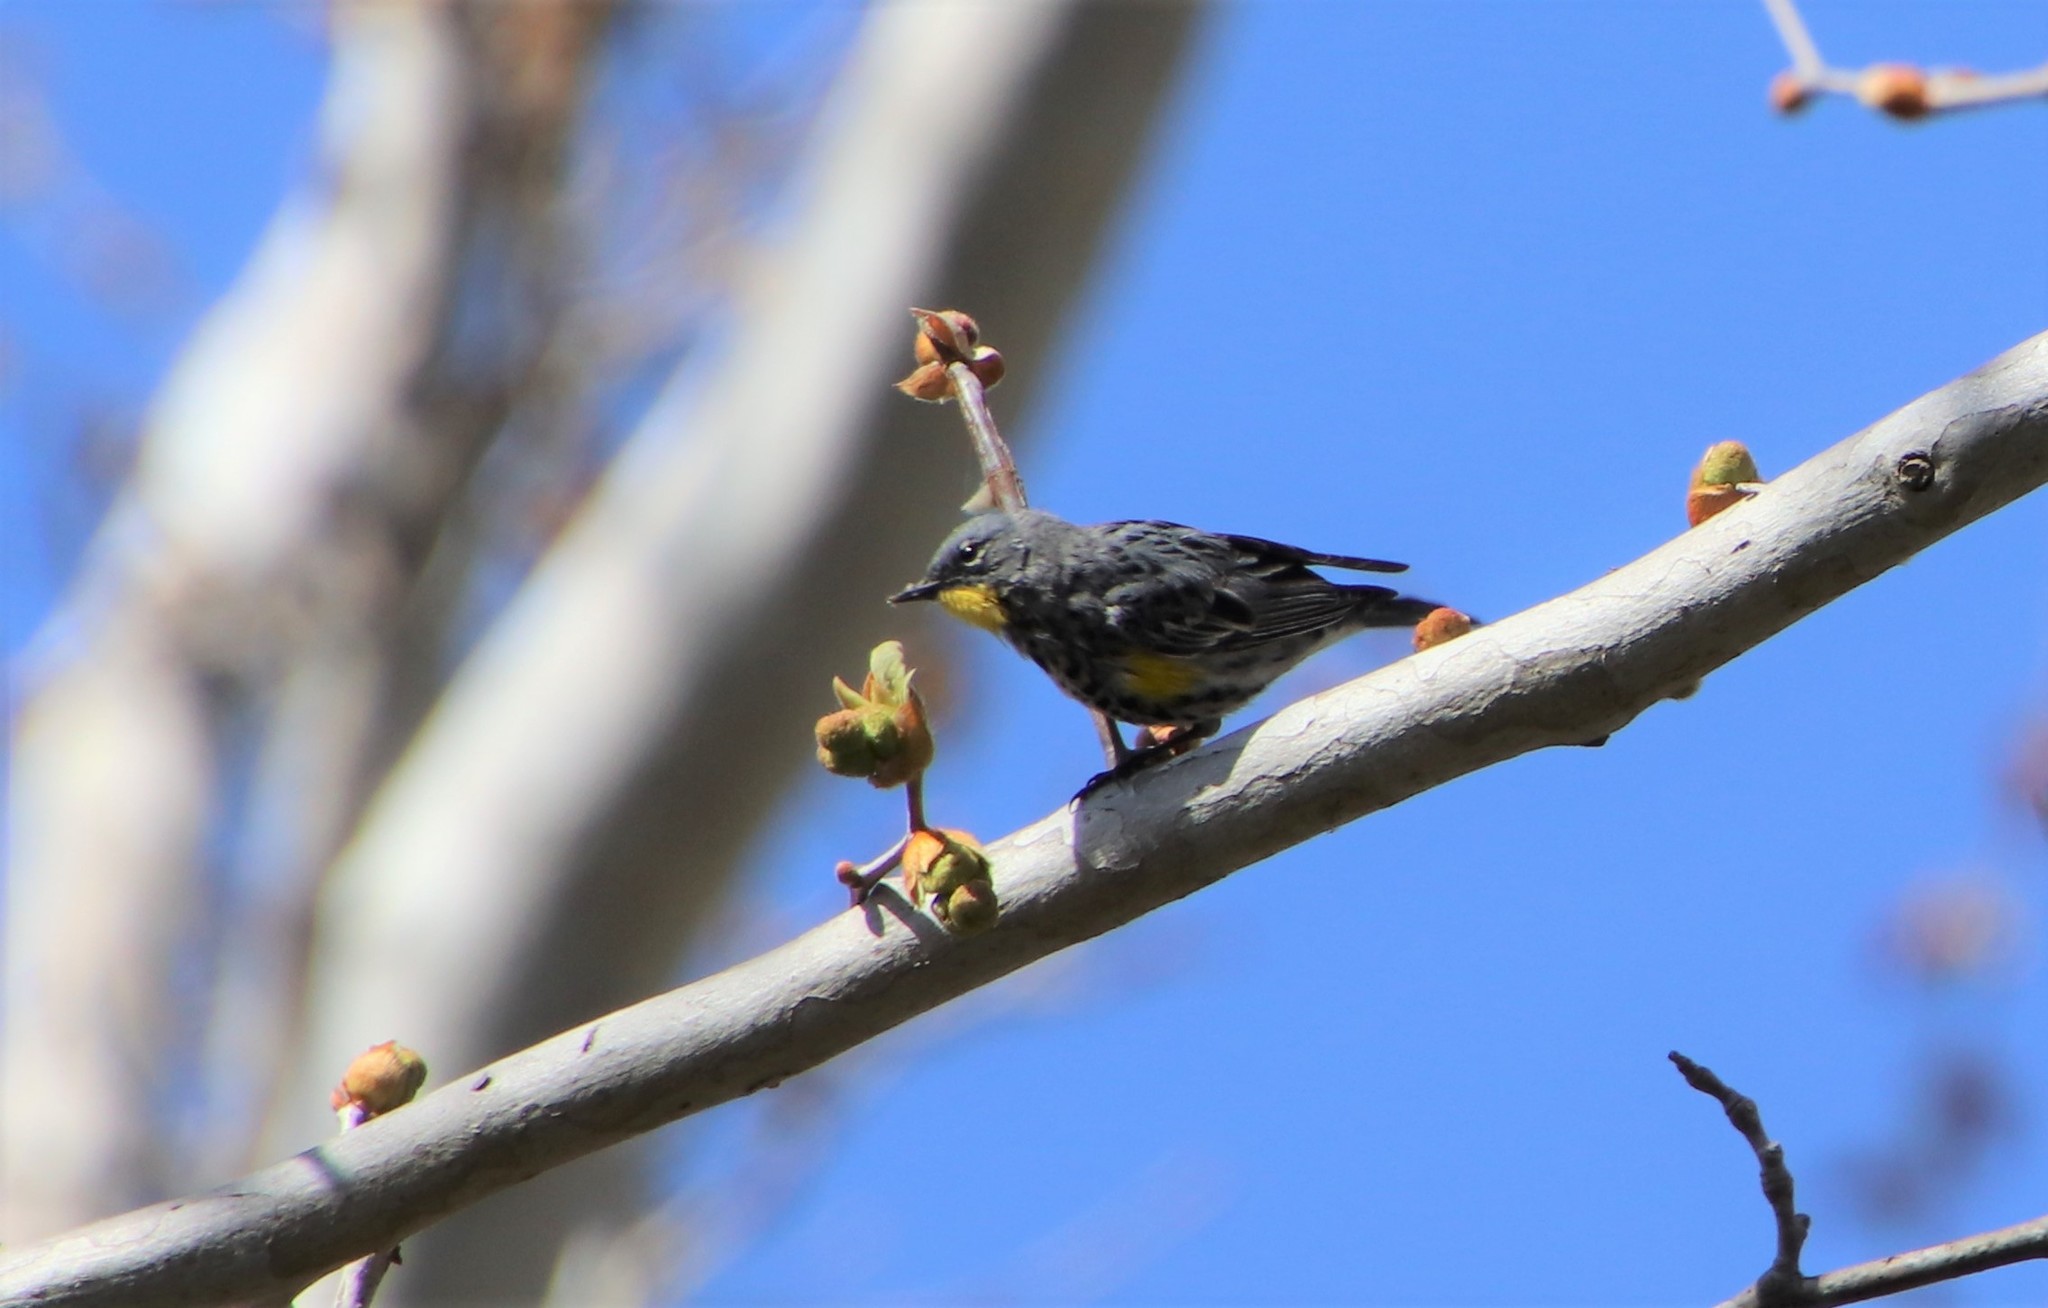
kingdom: Animalia
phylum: Chordata
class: Aves
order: Passeriformes
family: Parulidae
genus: Setophaga
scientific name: Setophaga auduboni
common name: Audubon's warbler
